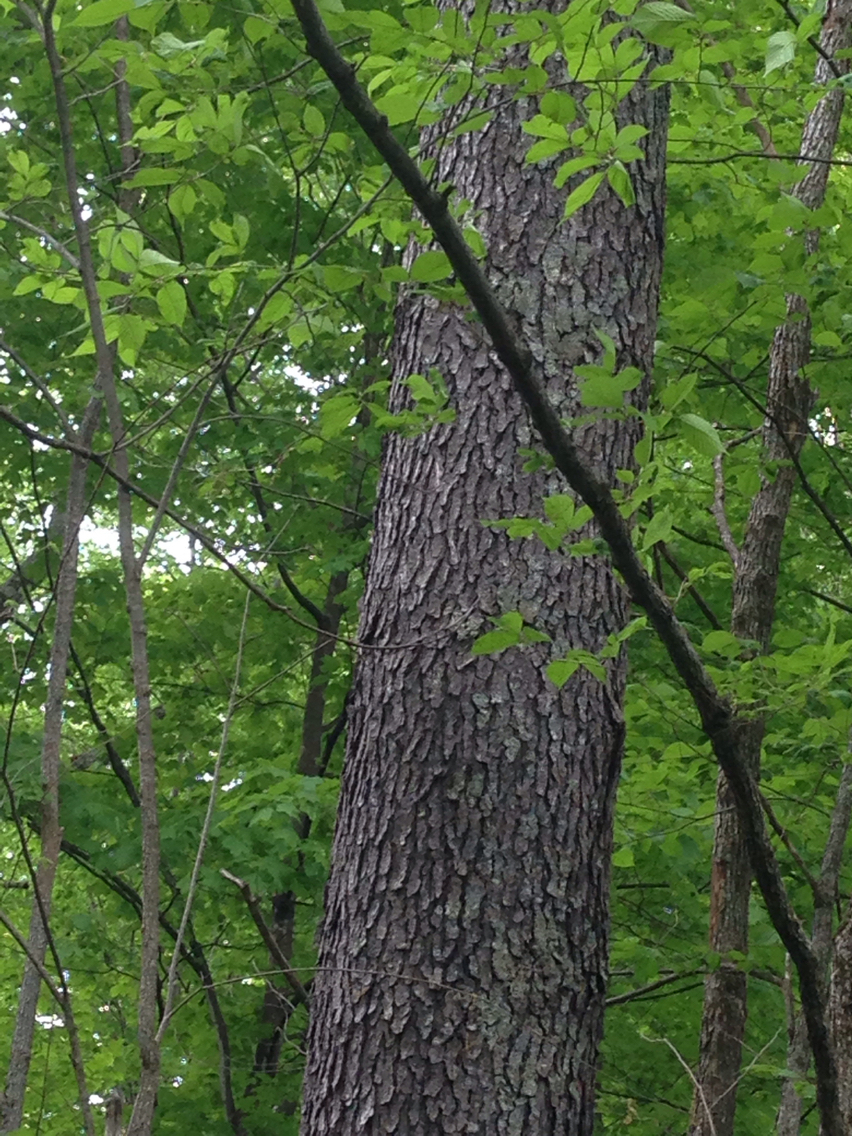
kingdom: Plantae
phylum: Tracheophyta
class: Magnoliopsida
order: Rosales
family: Rosaceae
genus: Prunus
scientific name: Prunus serotina
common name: Black cherry
